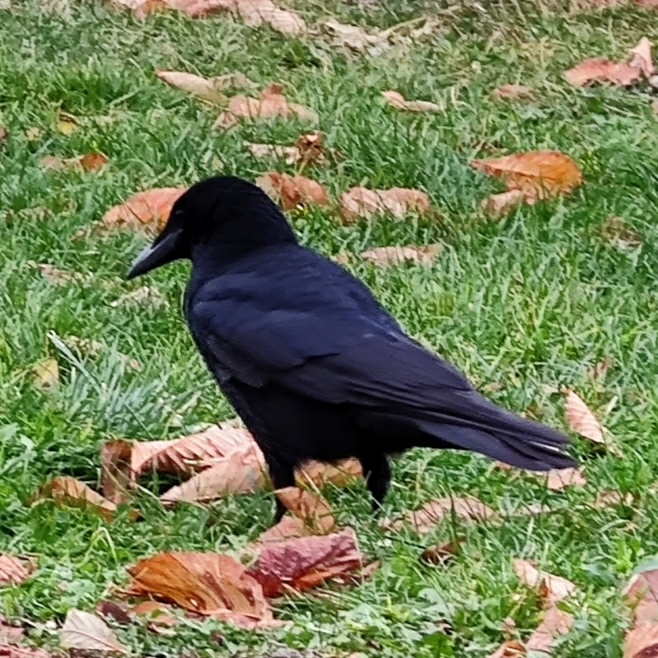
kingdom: Animalia
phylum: Chordata
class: Aves
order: Passeriformes
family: Corvidae
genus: Corvus
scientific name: Corvus corone
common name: Carrion crow
